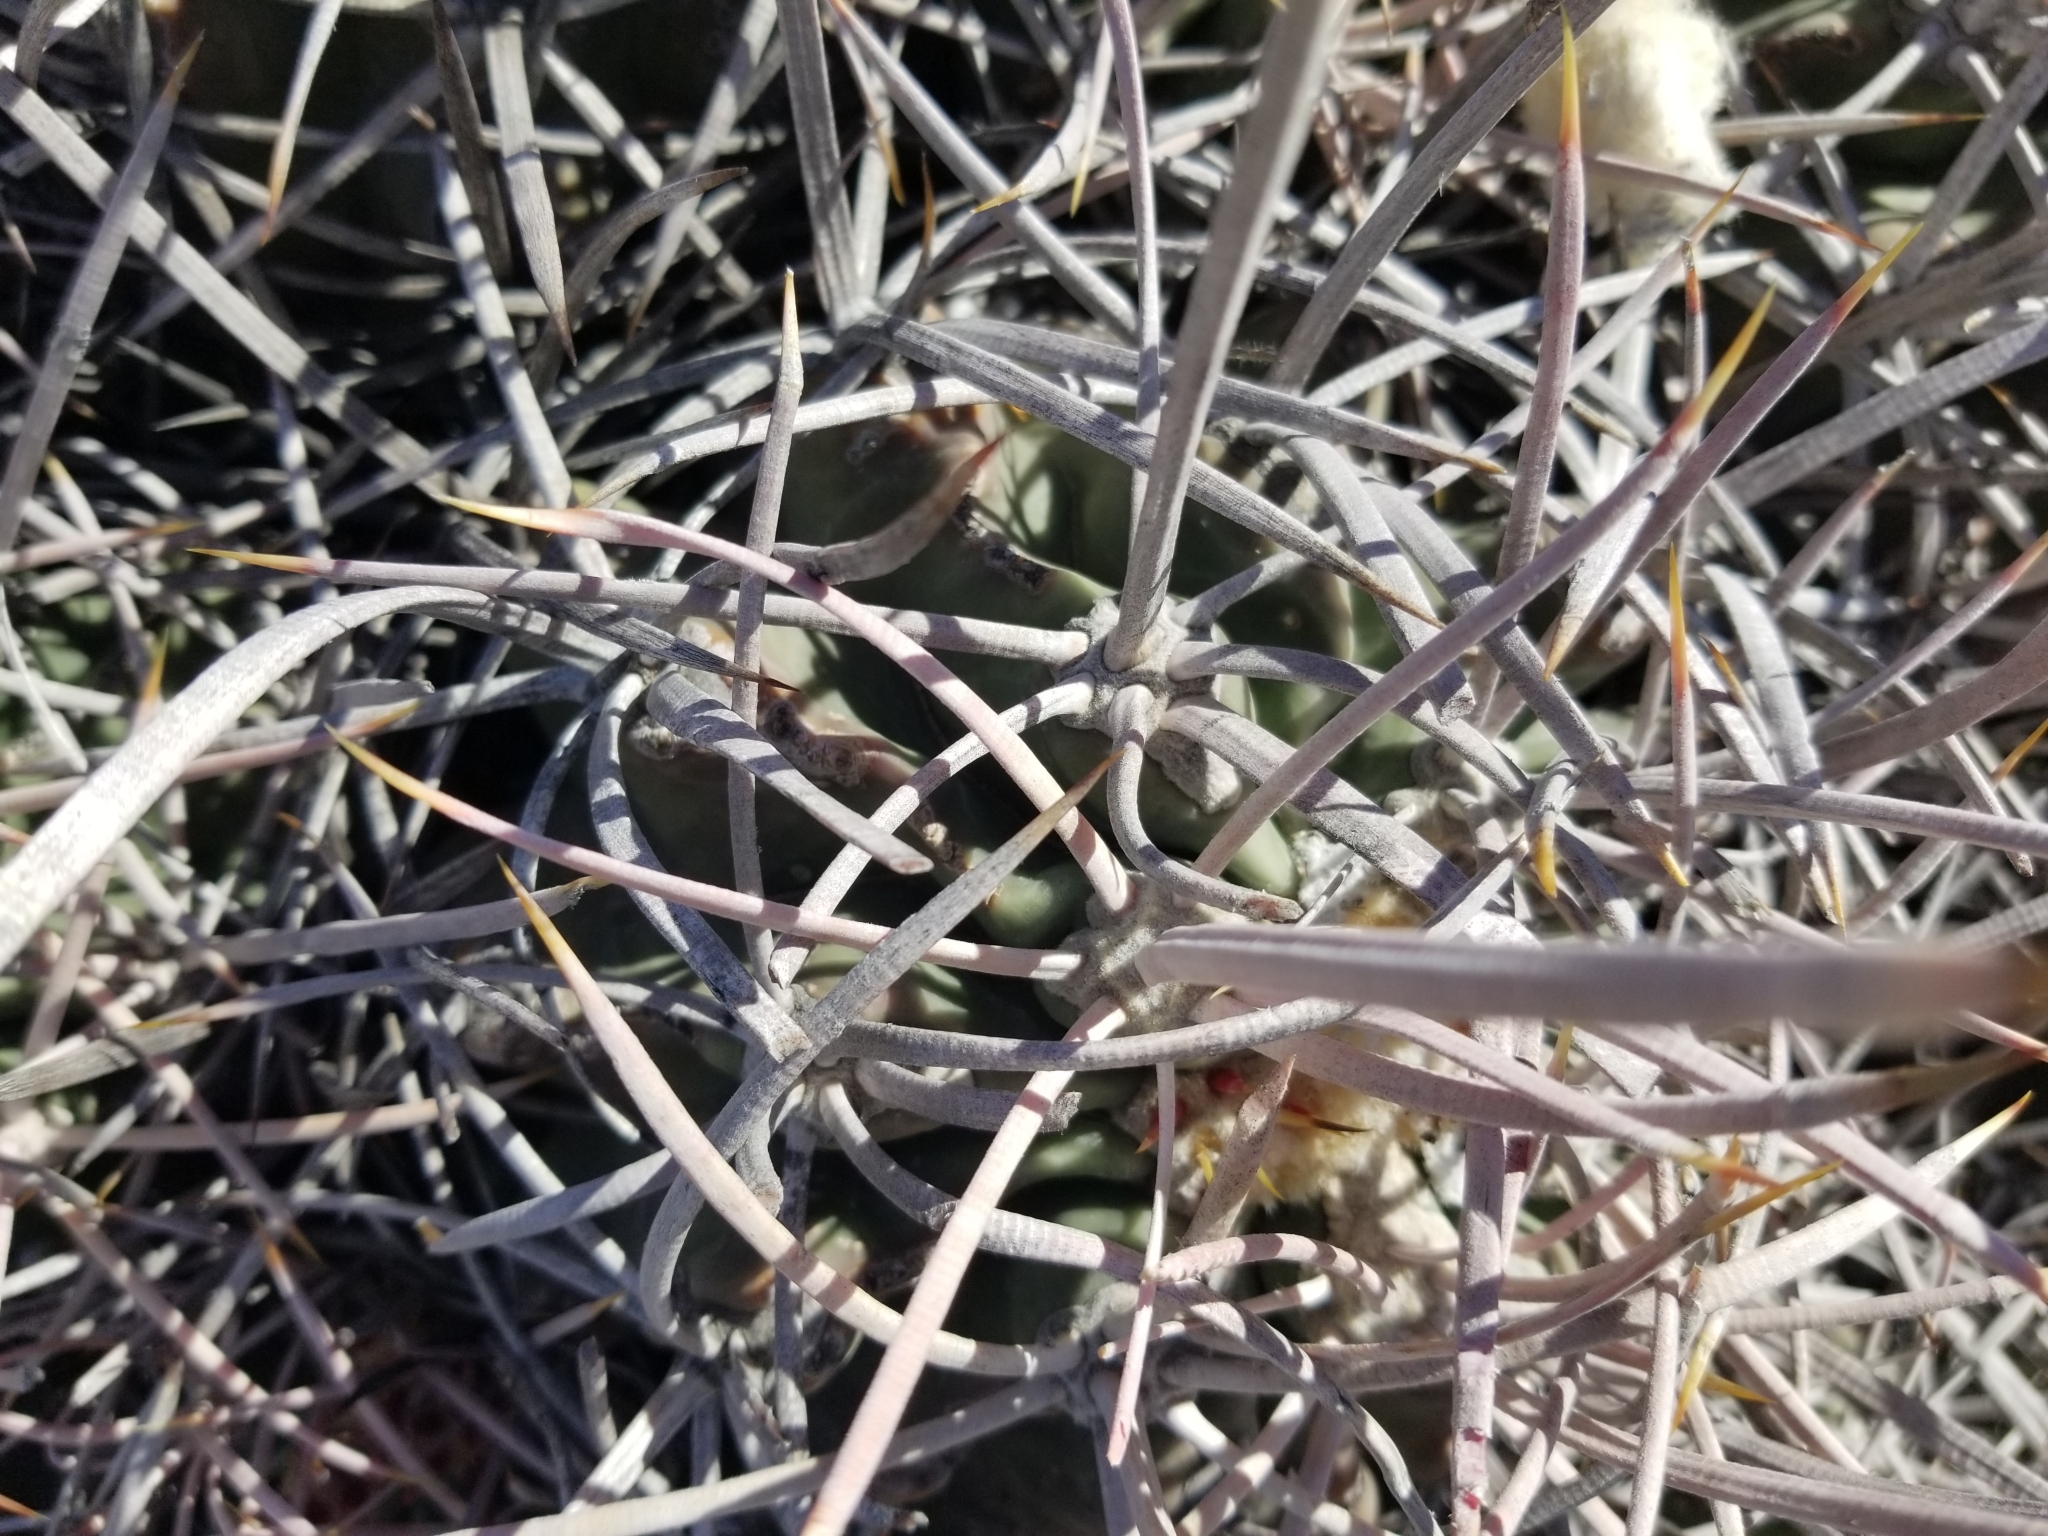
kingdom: Plantae
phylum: Tracheophyta
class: Magnoliopsida
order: Caryophyllales
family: Cactaceae
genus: Echinocactus
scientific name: Echinocactus polycephalus
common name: Cottontop cactus
